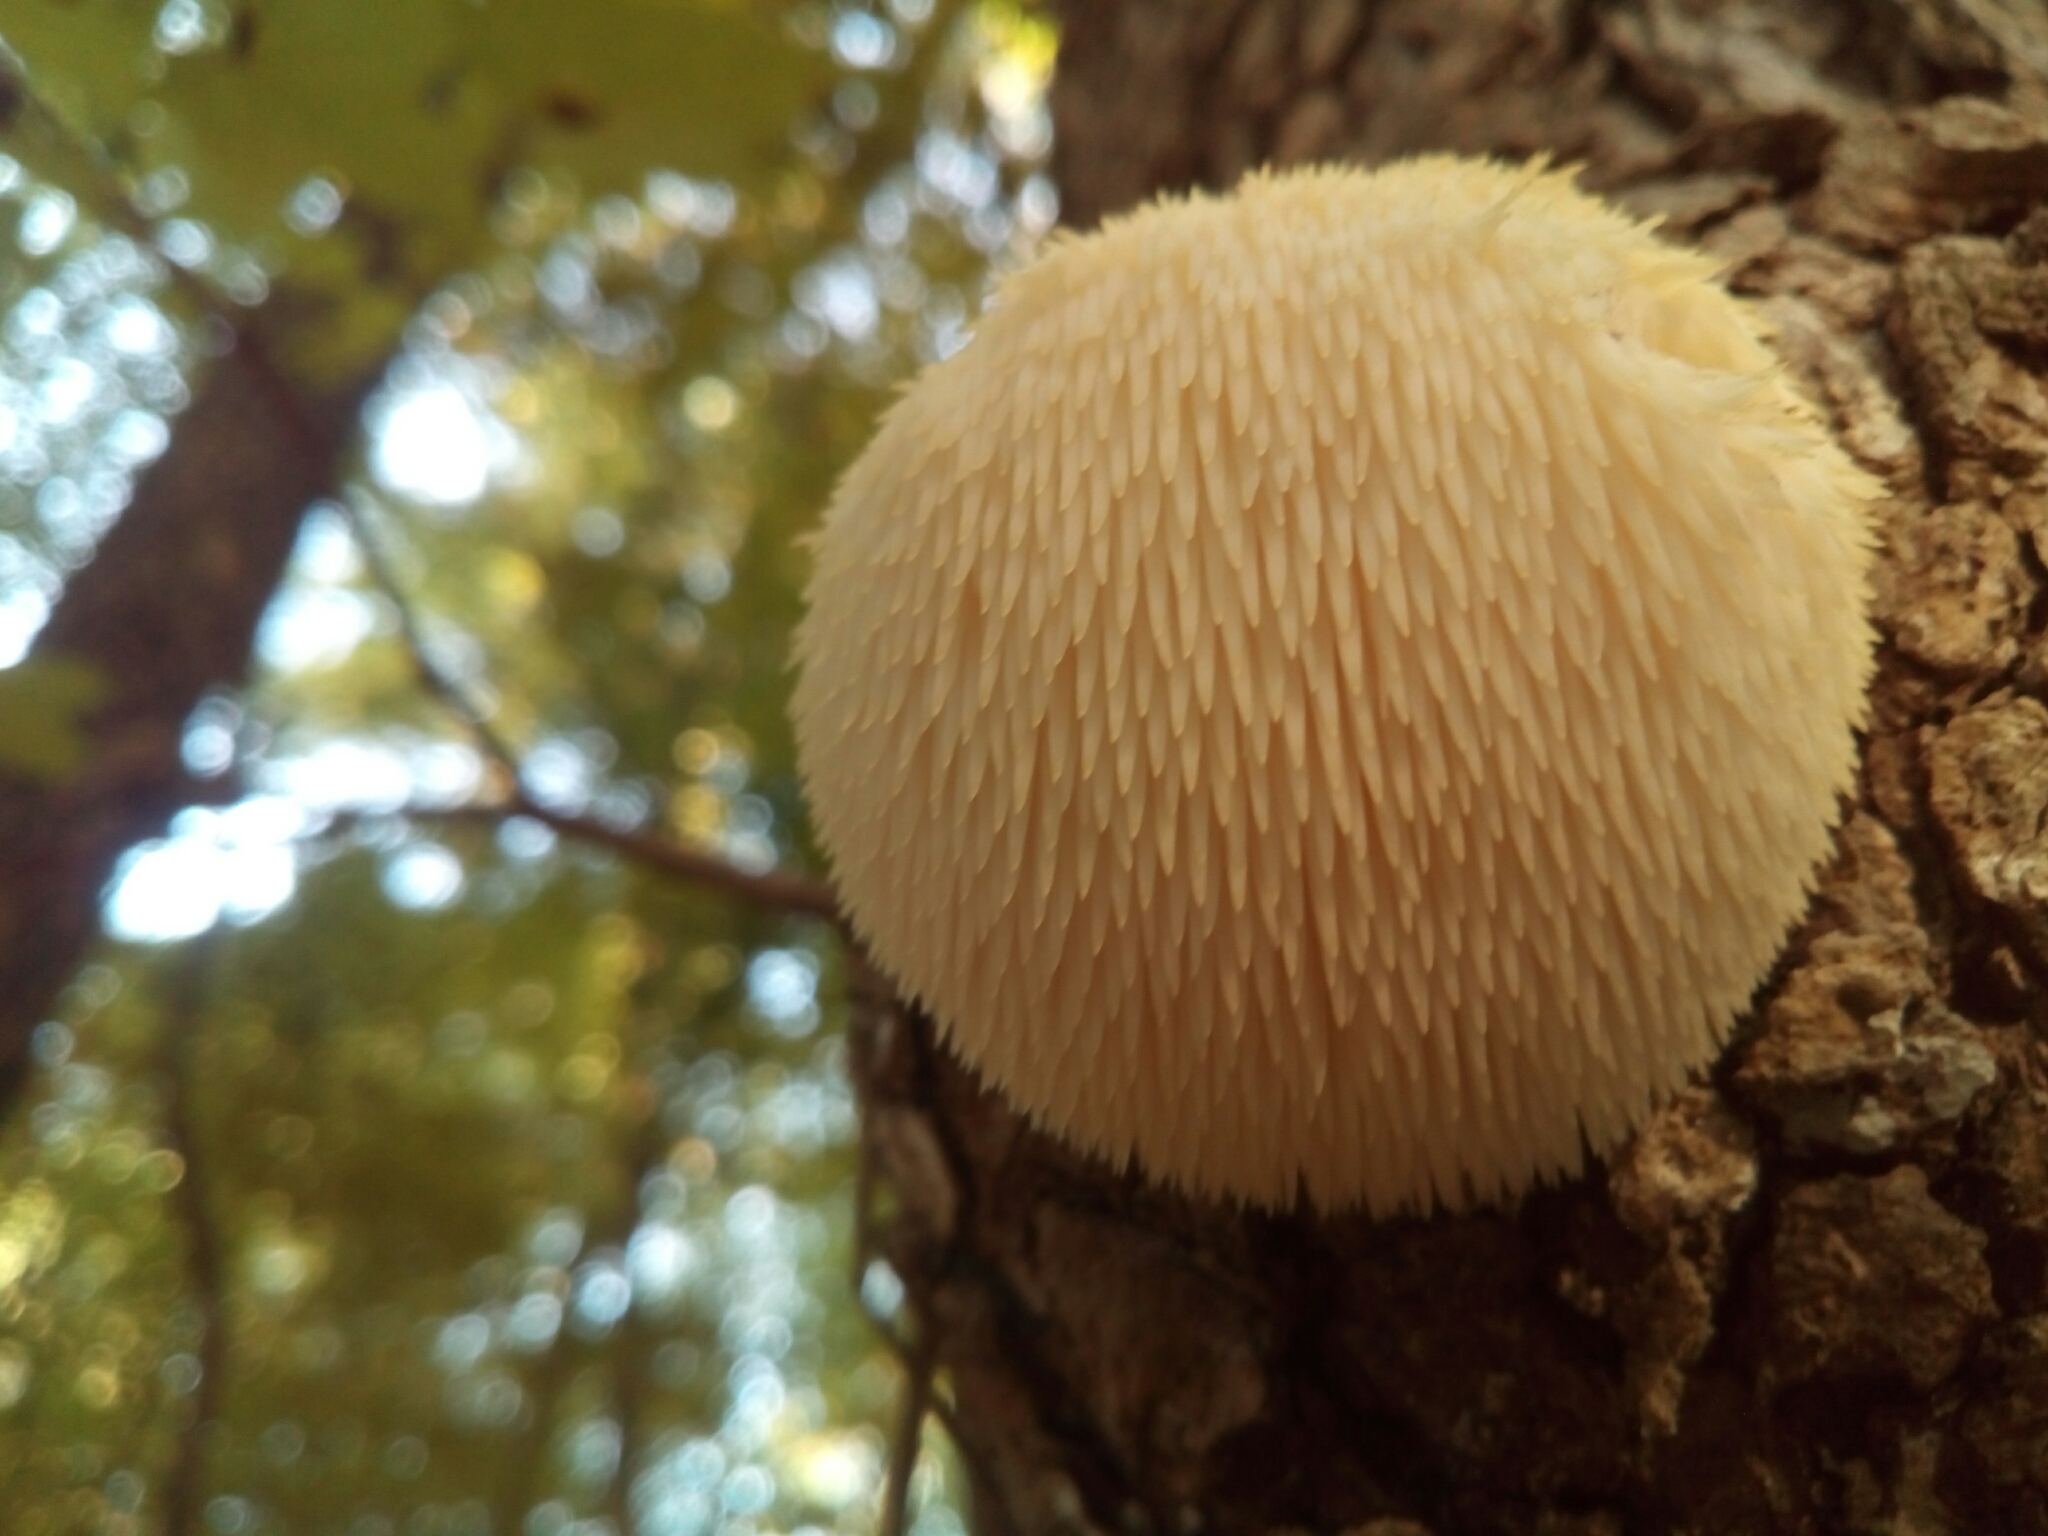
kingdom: Fungi
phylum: Basidiomycota
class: Agaricomycetes
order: Russulales
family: Hericiaceae
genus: Hericium
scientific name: Hericium erinaceus
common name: Bearded tooth
